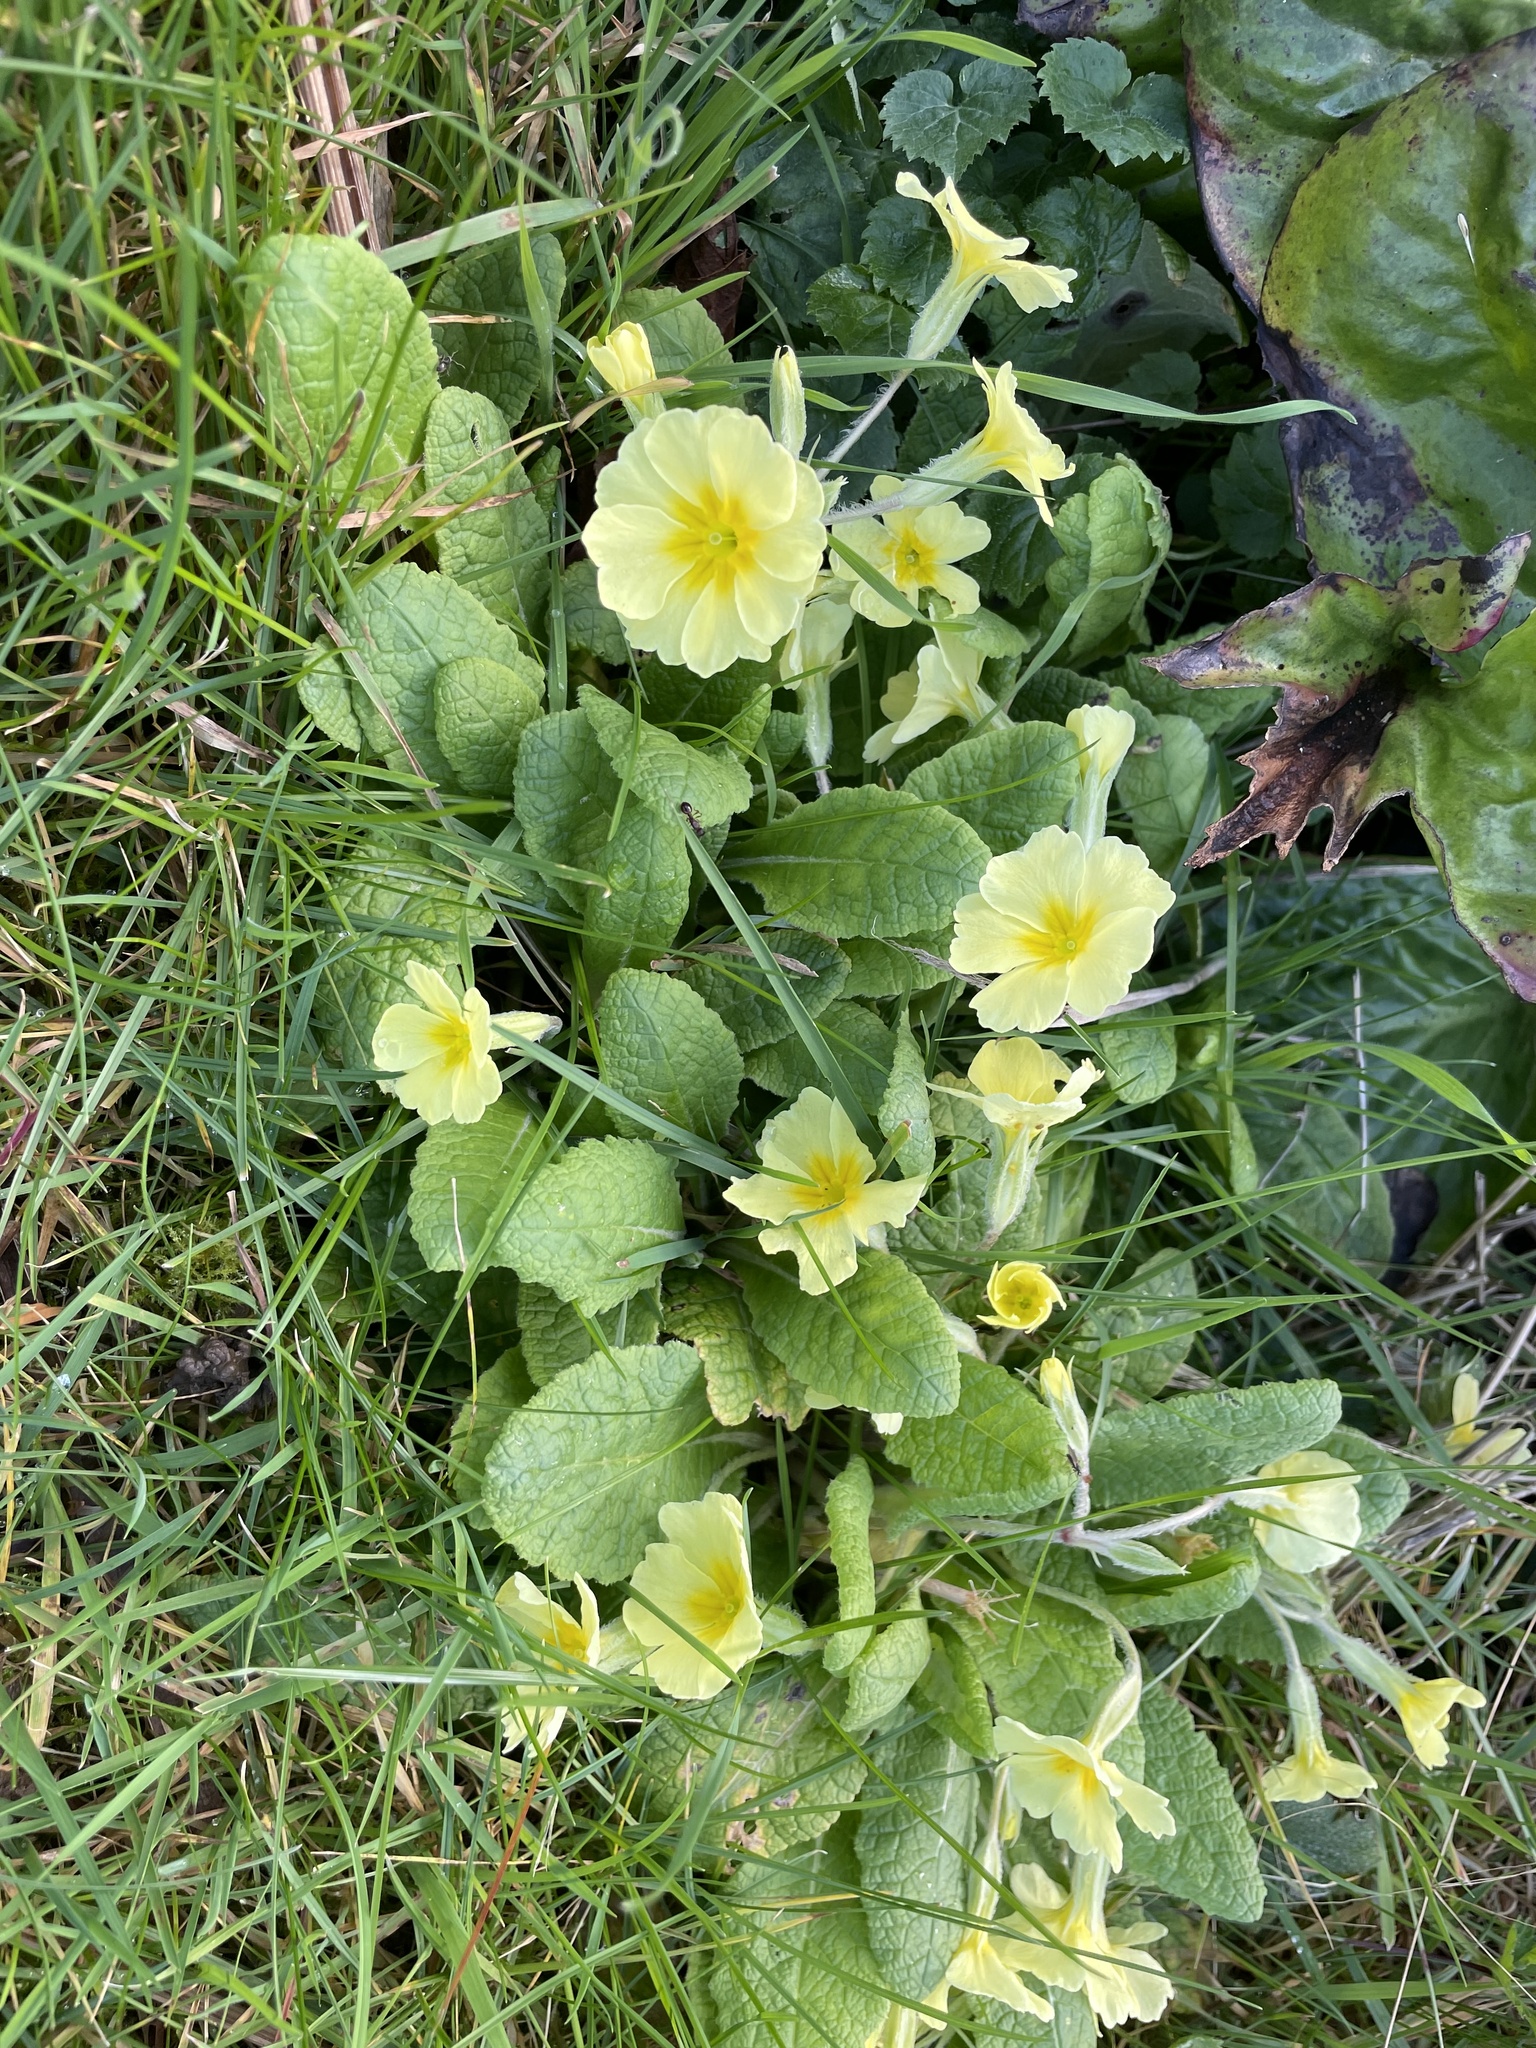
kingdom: Plantae
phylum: Tracheophyta
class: Magnoliopsida
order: Ericales
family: Primulaceae
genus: Primula
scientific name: Primula vulgaris
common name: Primrose
